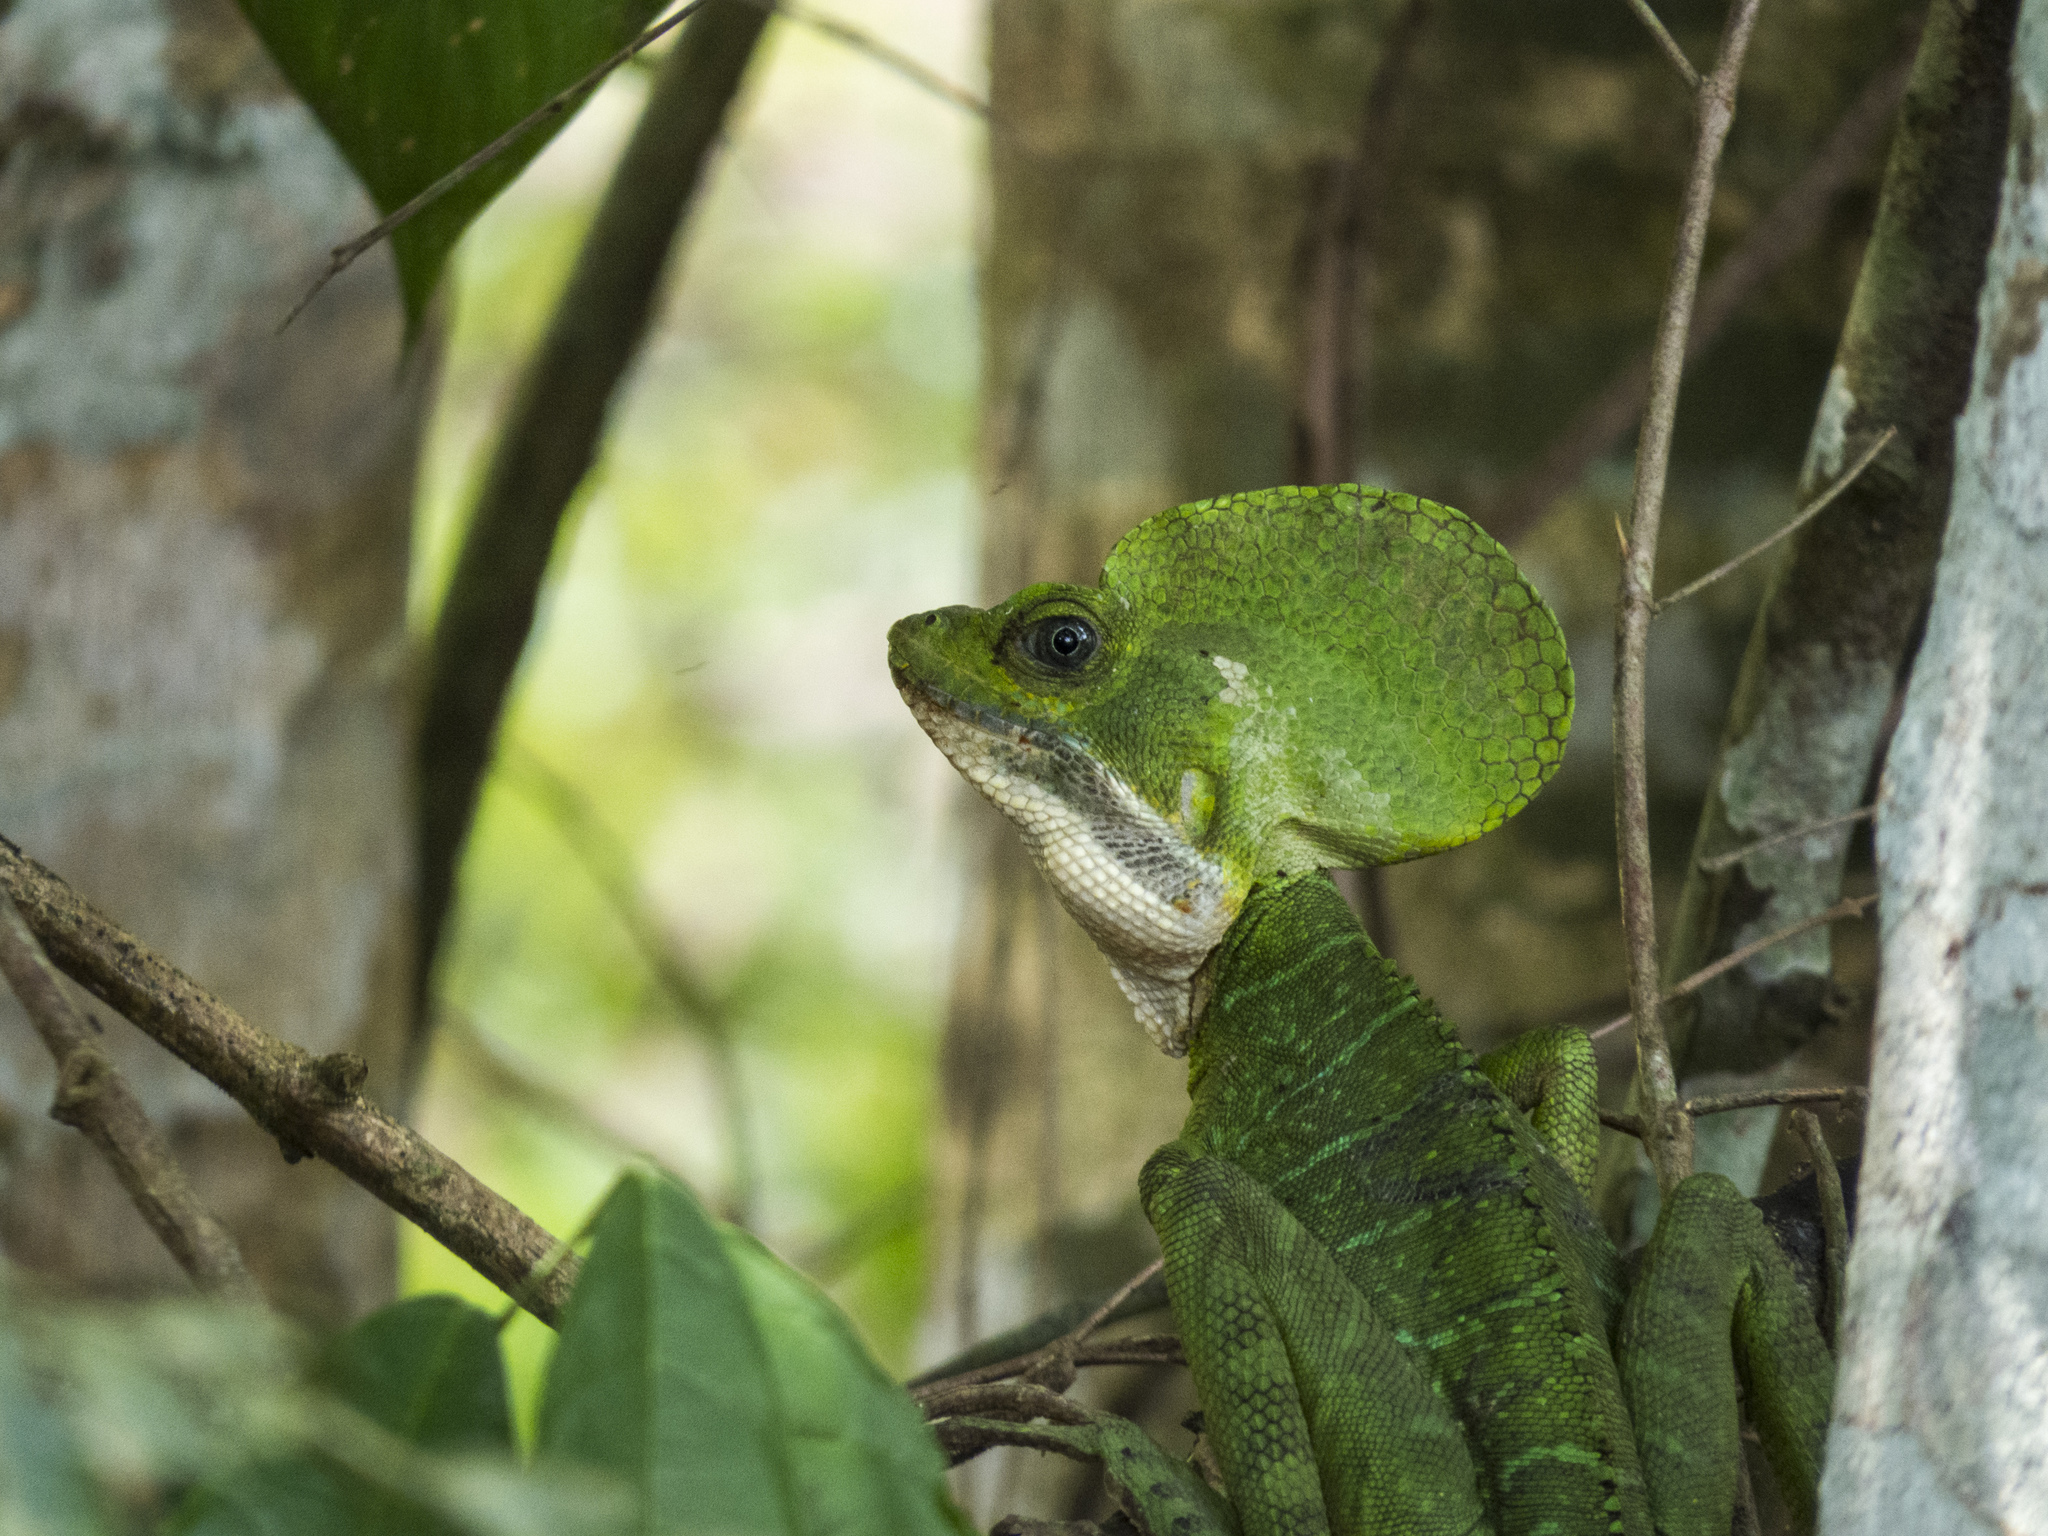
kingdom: Animalia
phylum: Chordata
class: Squamata
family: Corytophanidae
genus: Basiliscus
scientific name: Basiliscus galeritus
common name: Western basilisk
